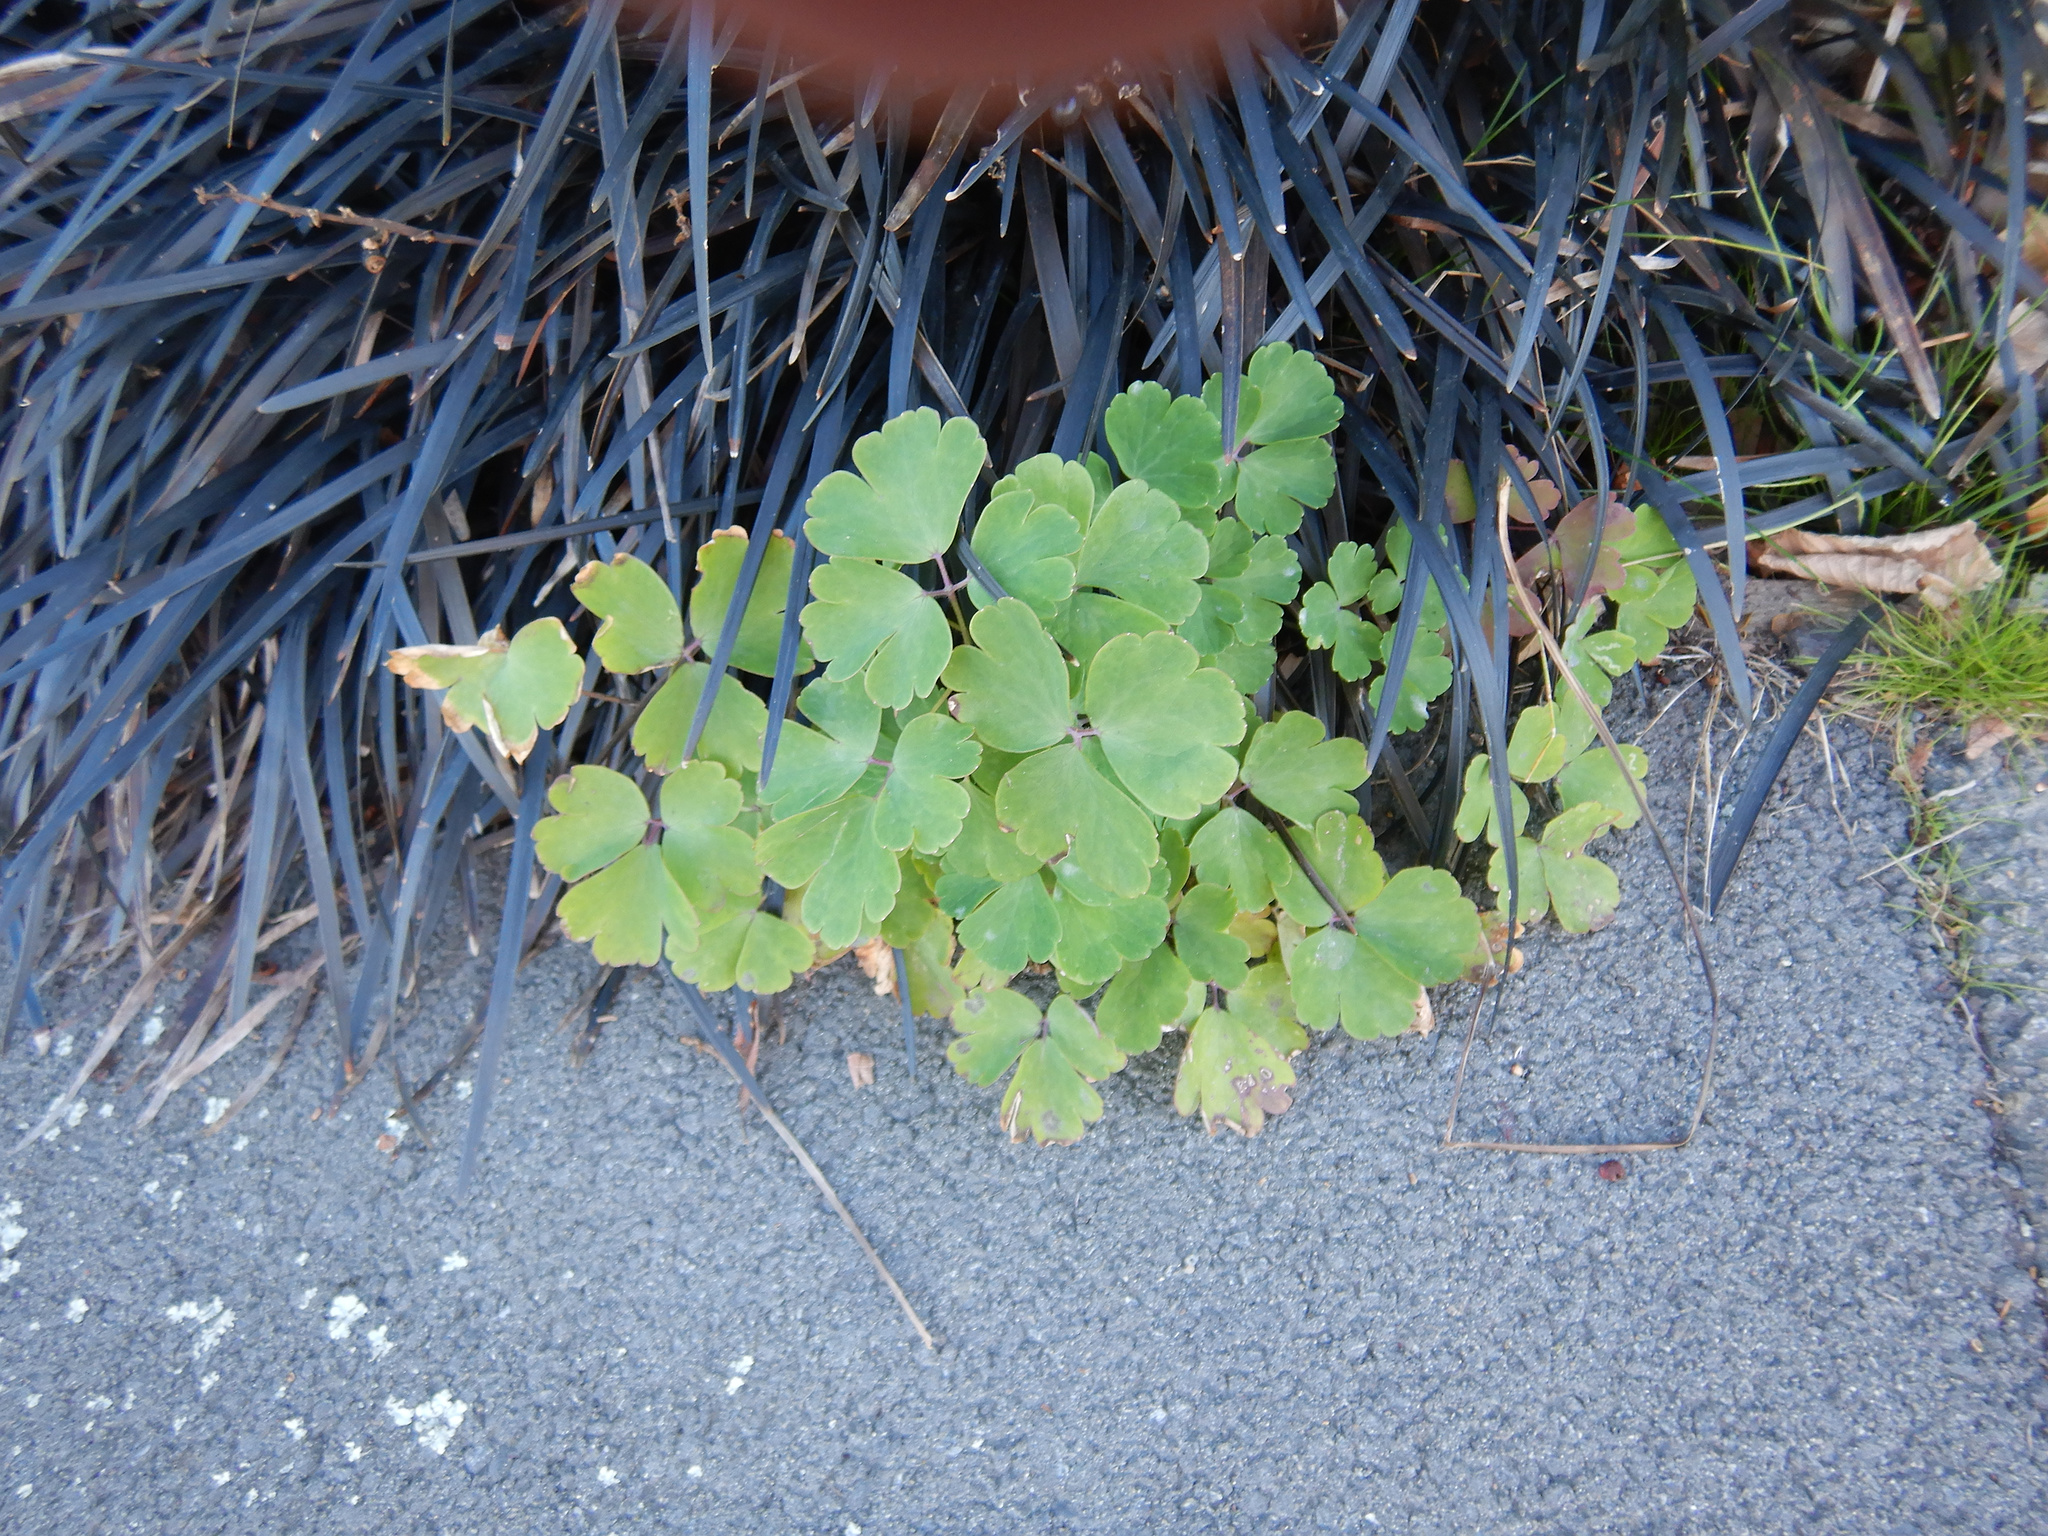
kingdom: Plantae
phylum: Tracheophyta
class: Magnoliopsida
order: Ranunculales
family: Ranunculaceae
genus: Aquilegia
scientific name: Aquilegia vulgaris
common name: Columbine
